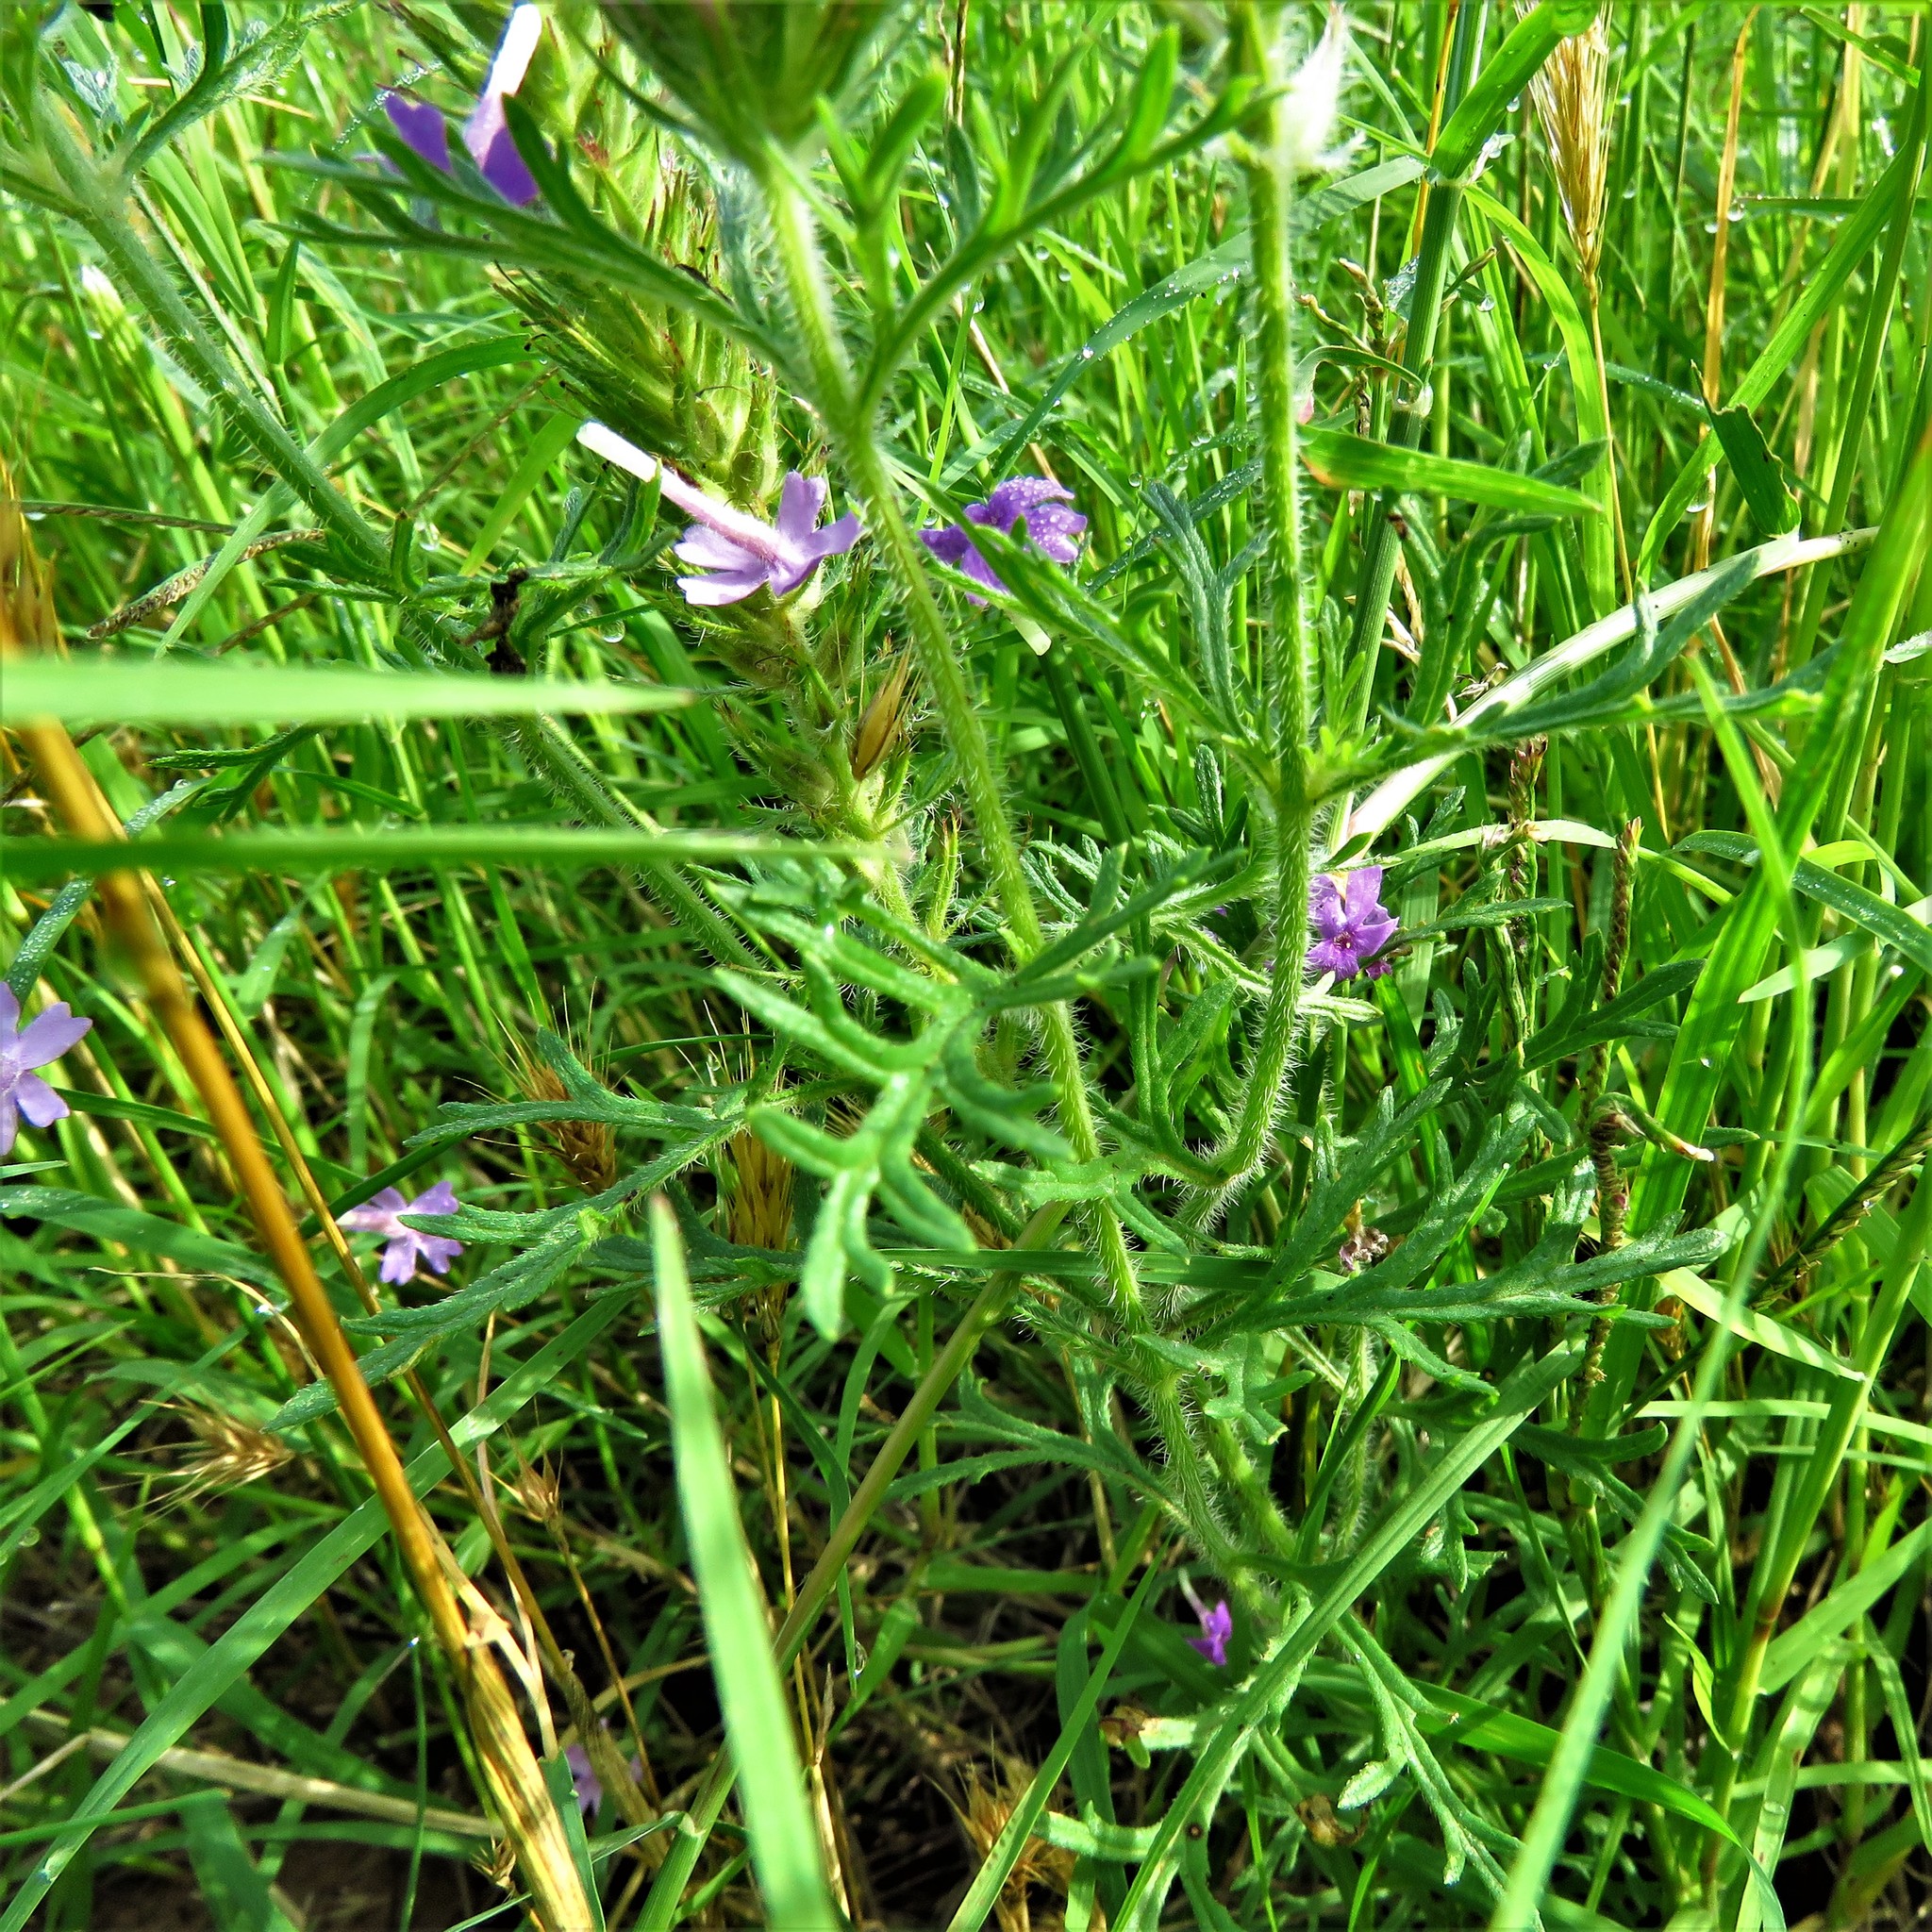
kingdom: Plantae
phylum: Tracheophyta
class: Magnoliopsida
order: Lamiales
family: Verbenaceae
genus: Verbena
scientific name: Verbena bipinnatifida
